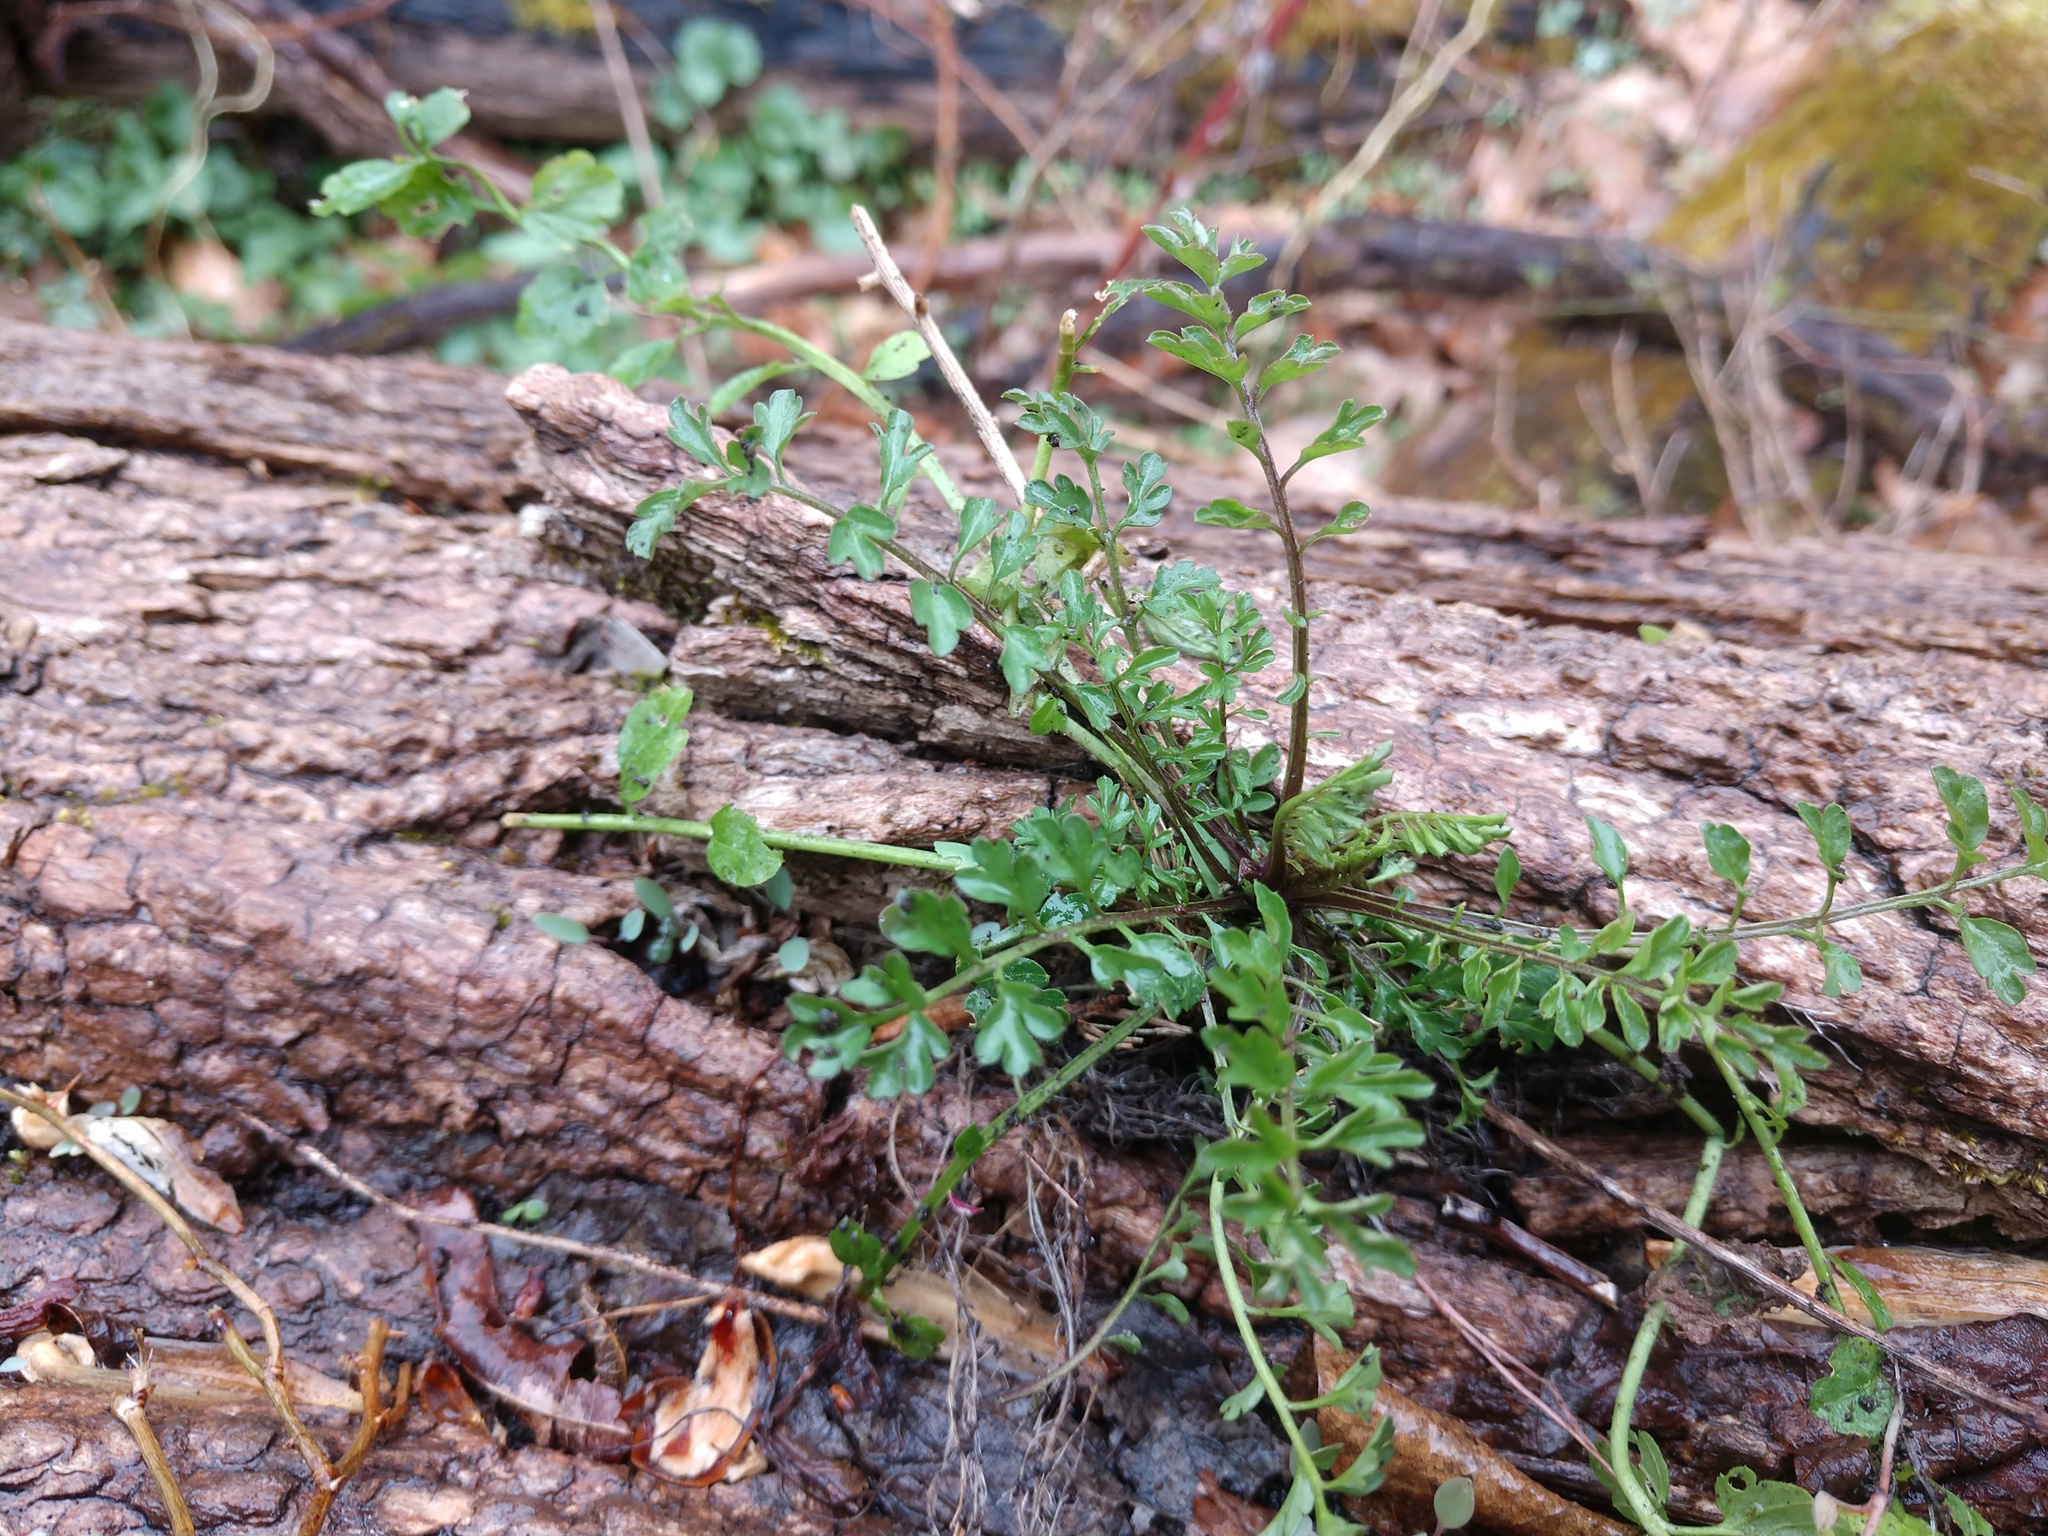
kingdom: Plantae
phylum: Tracheophyta
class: Magnoliopsida
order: Brassicales
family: Brassicaceae
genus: Cardamine
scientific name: Cardamine impatiens
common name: Narrow-leaved bitter-cress
